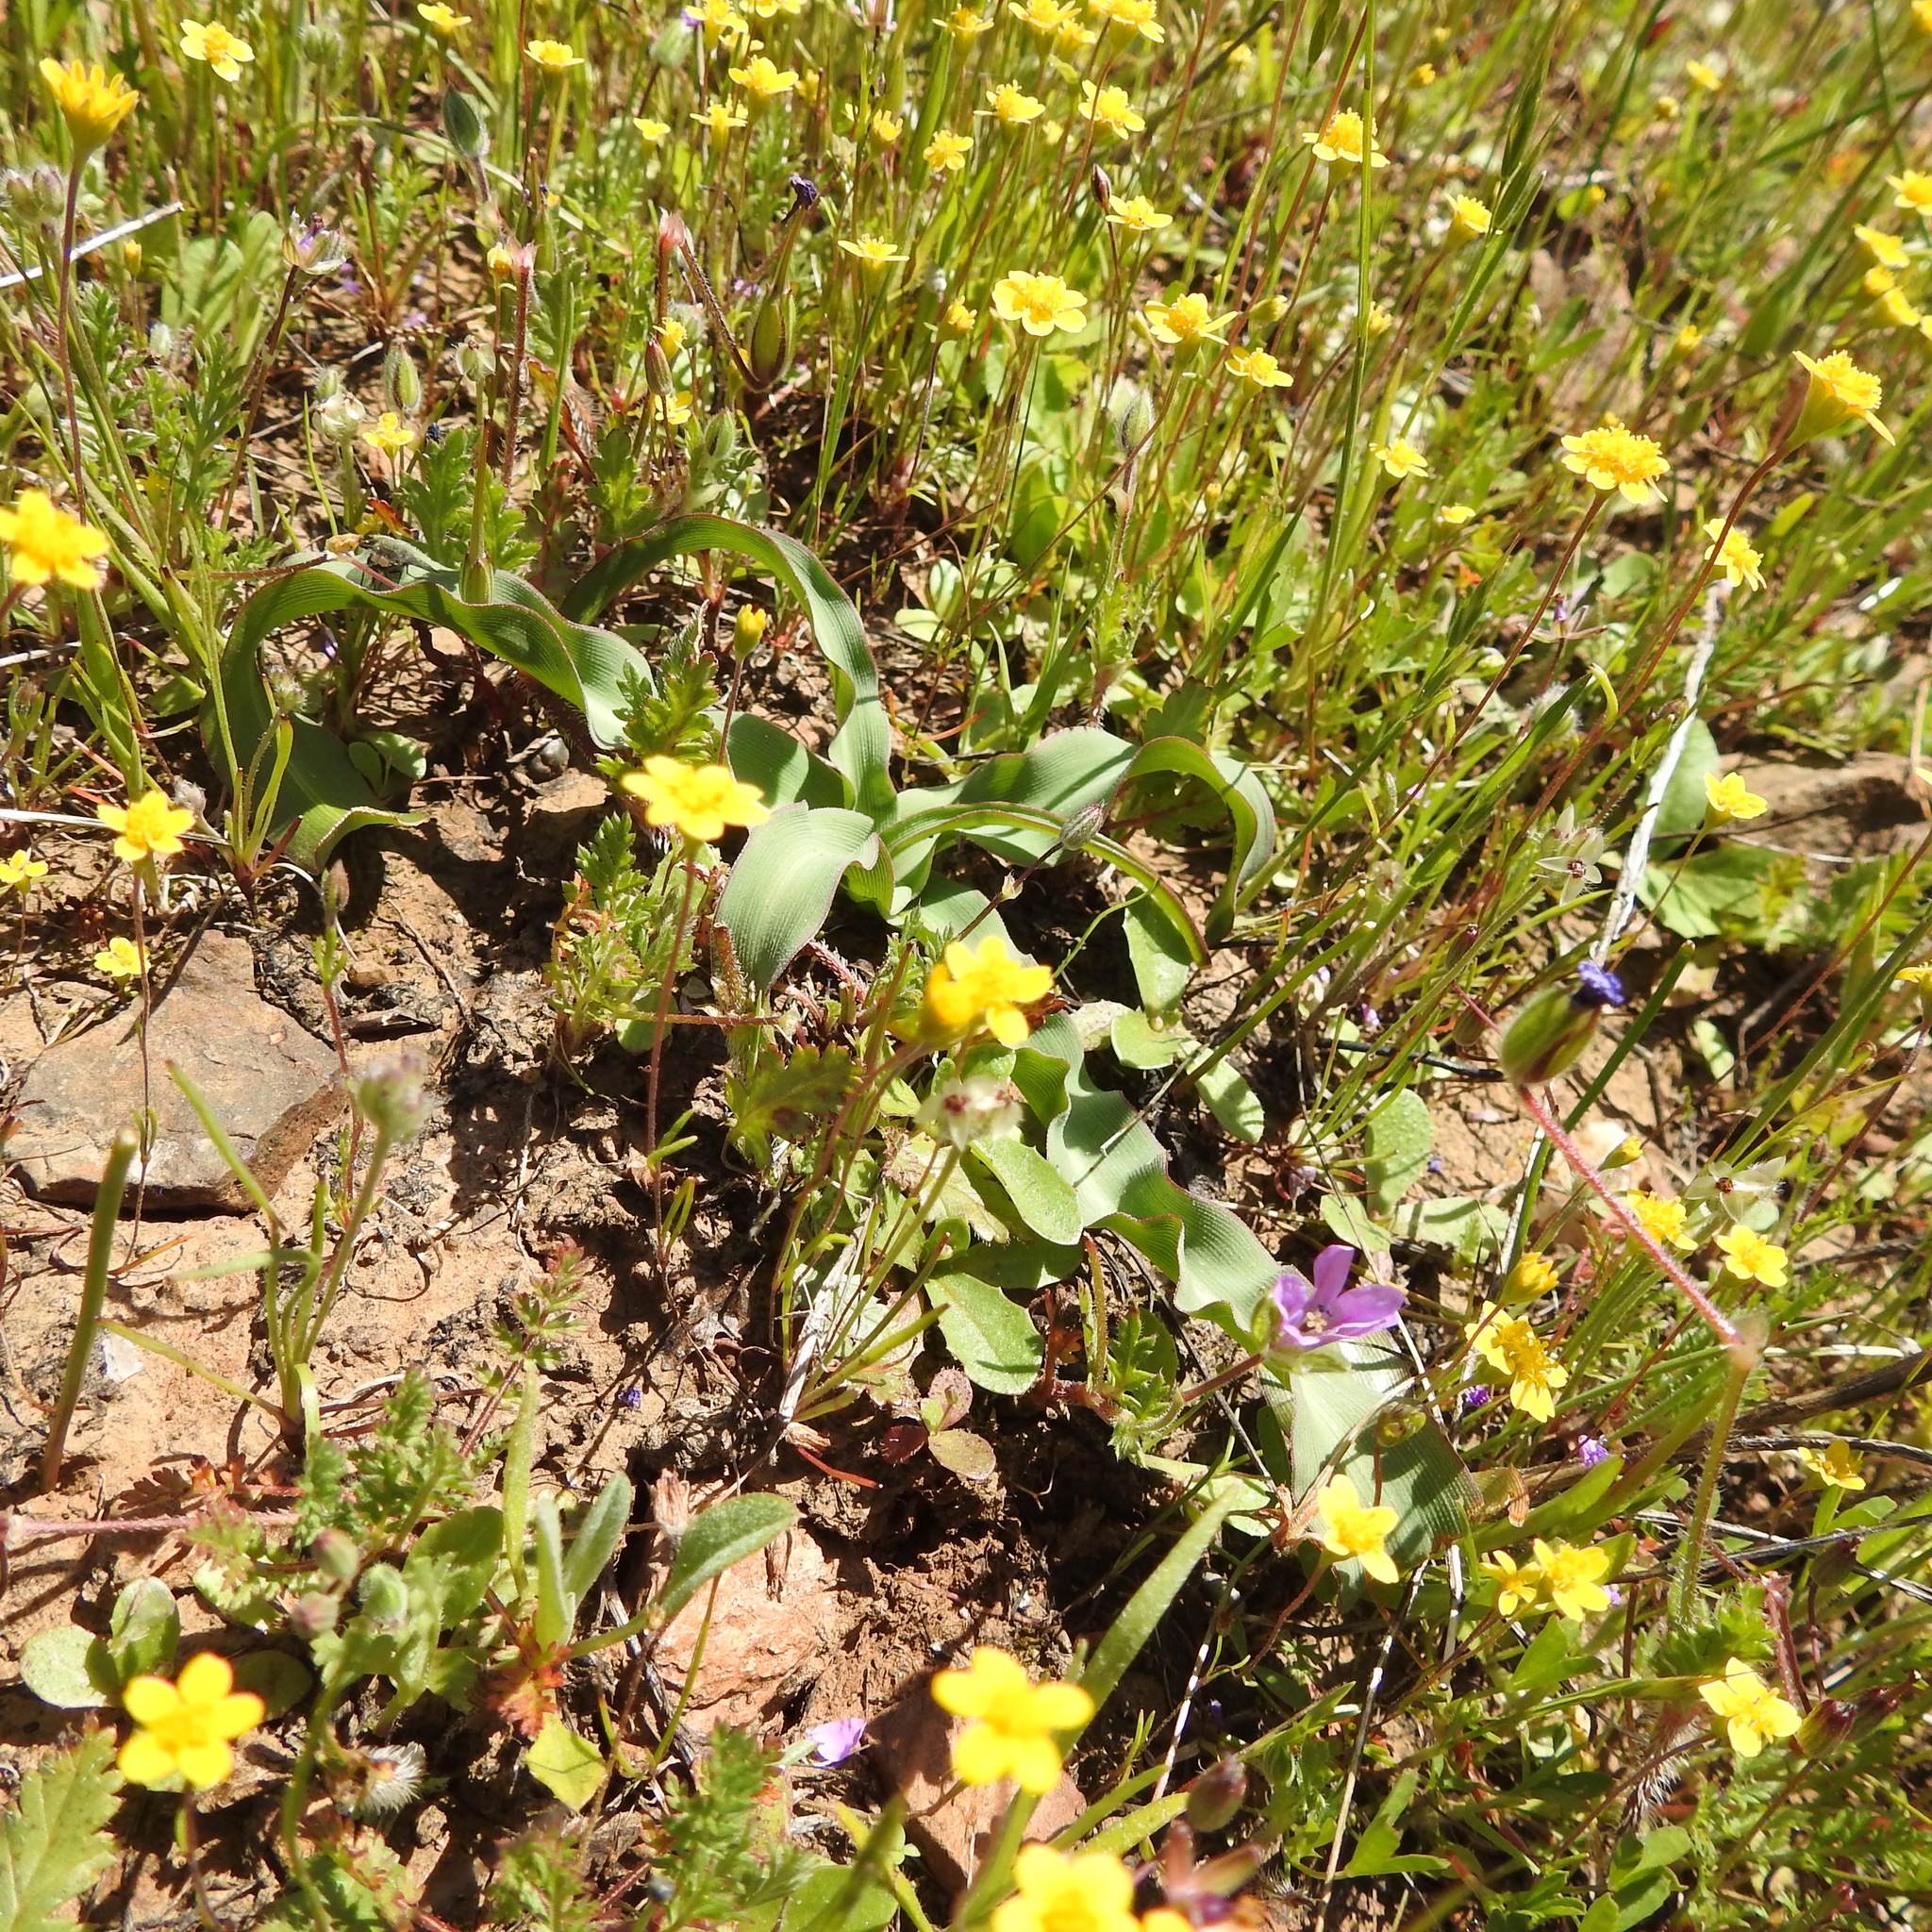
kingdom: Plantae
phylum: Tracheophyta
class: Magnoliopsida
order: Asterales
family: Asteraceae
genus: Lasthenia
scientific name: Lasthenia californica
